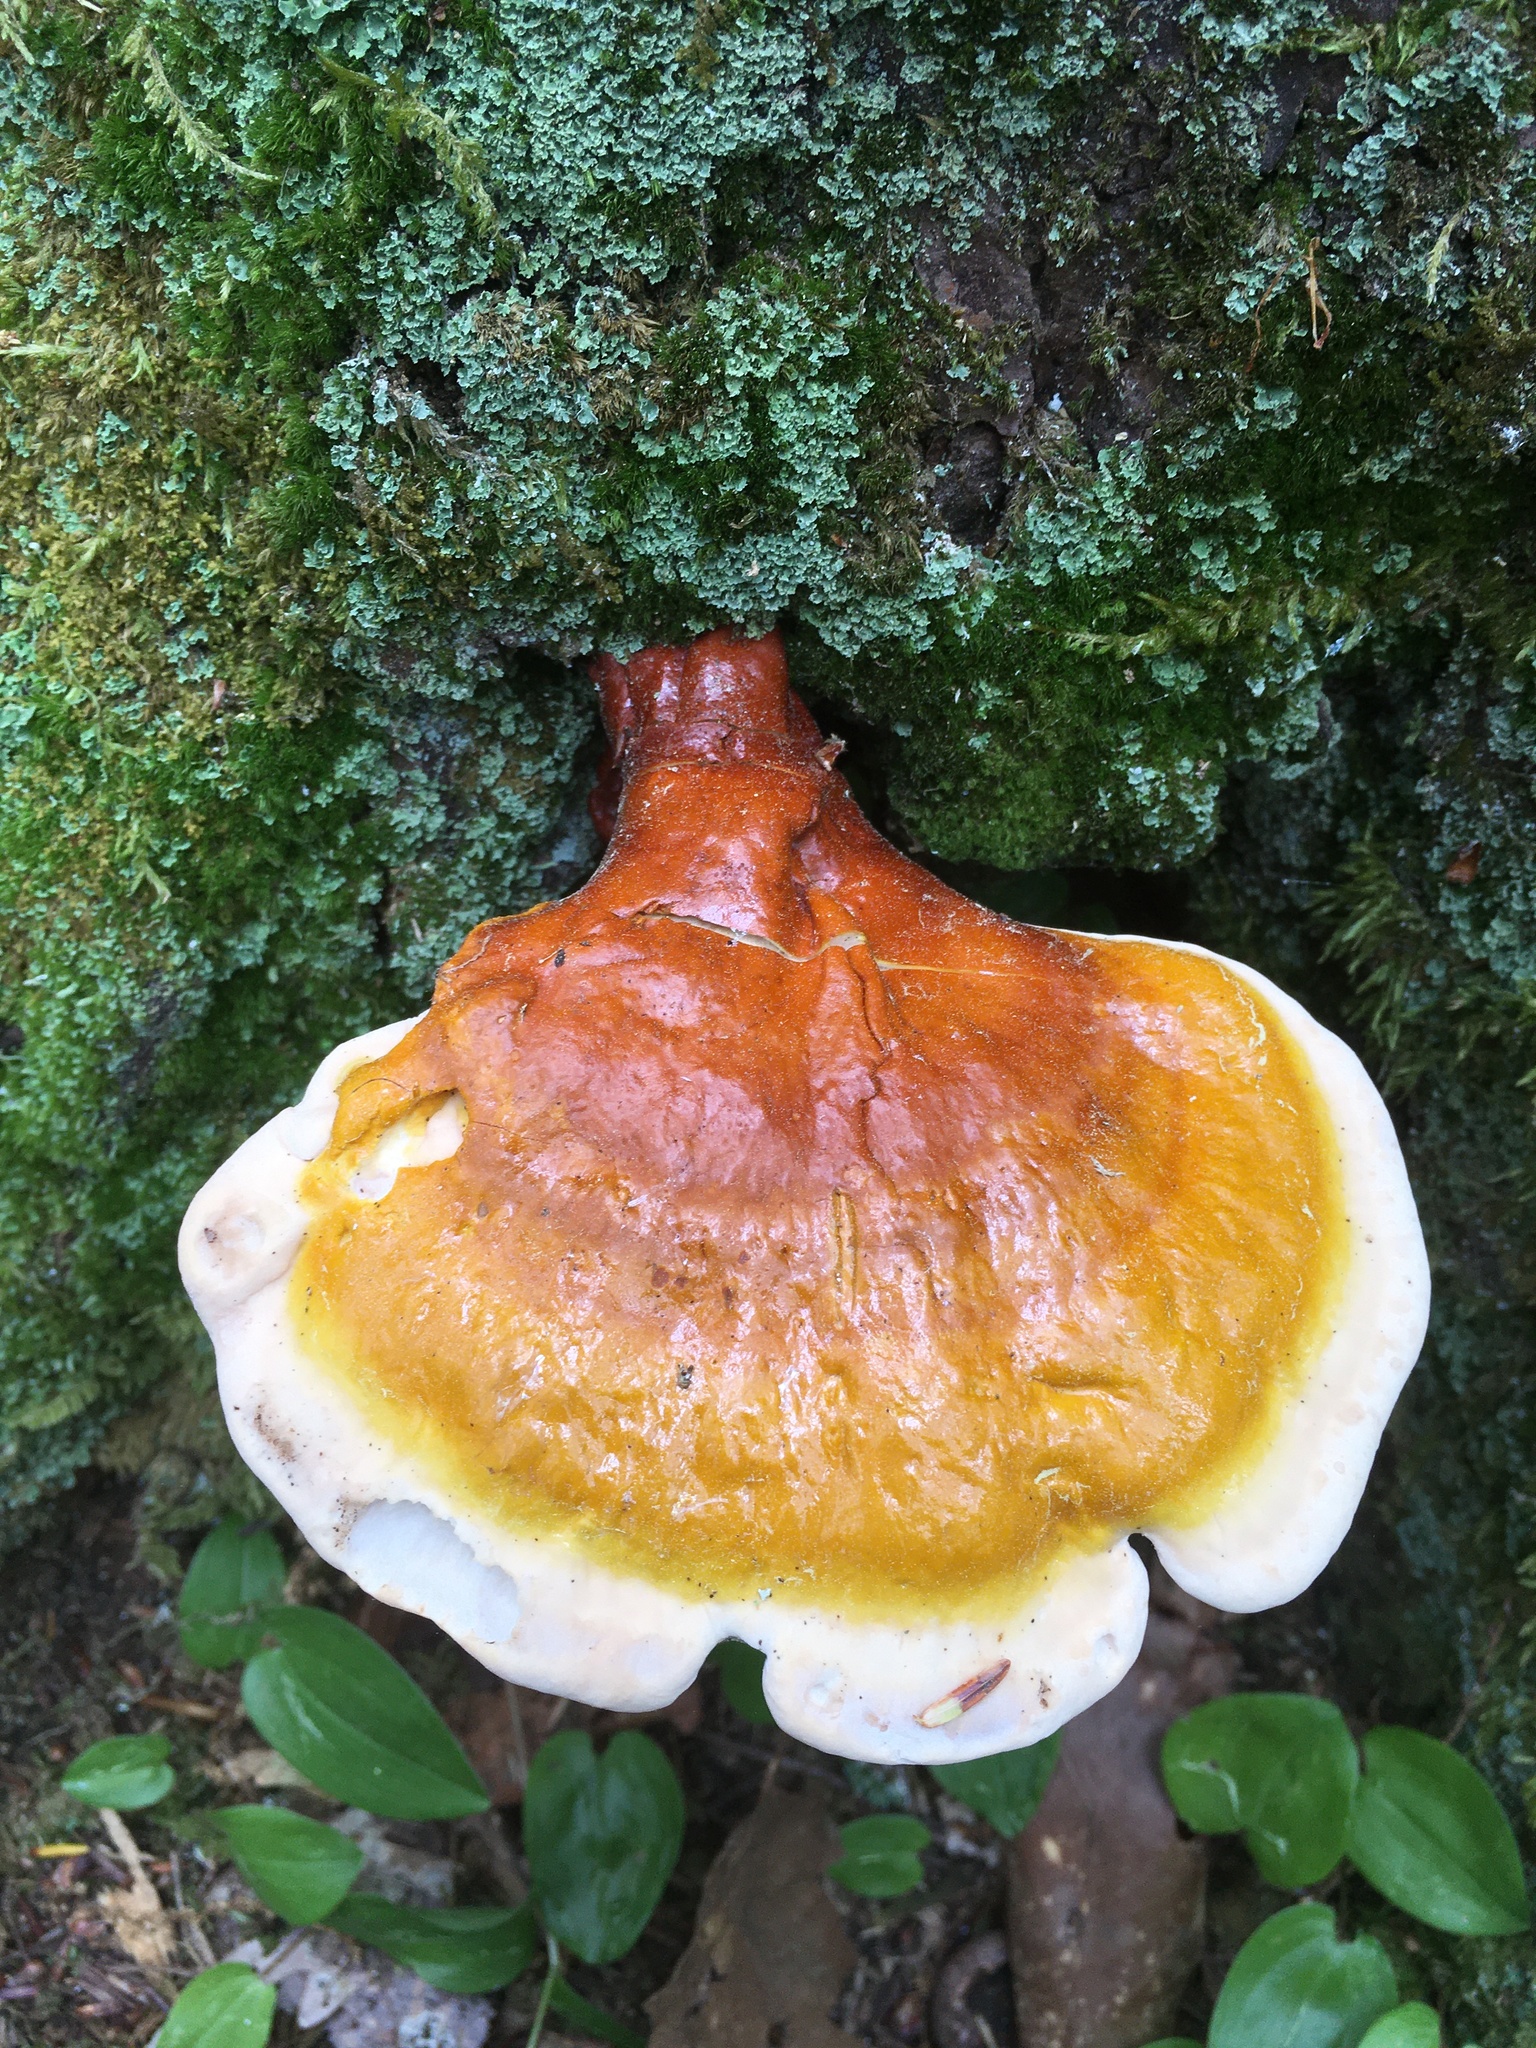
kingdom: Fungi
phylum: Basidiomycota
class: Agaricomycetes
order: Polyporales
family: Polyporaceae
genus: Ganoderma
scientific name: Ganoderma tsugae
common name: Hemlock varnish shelf
